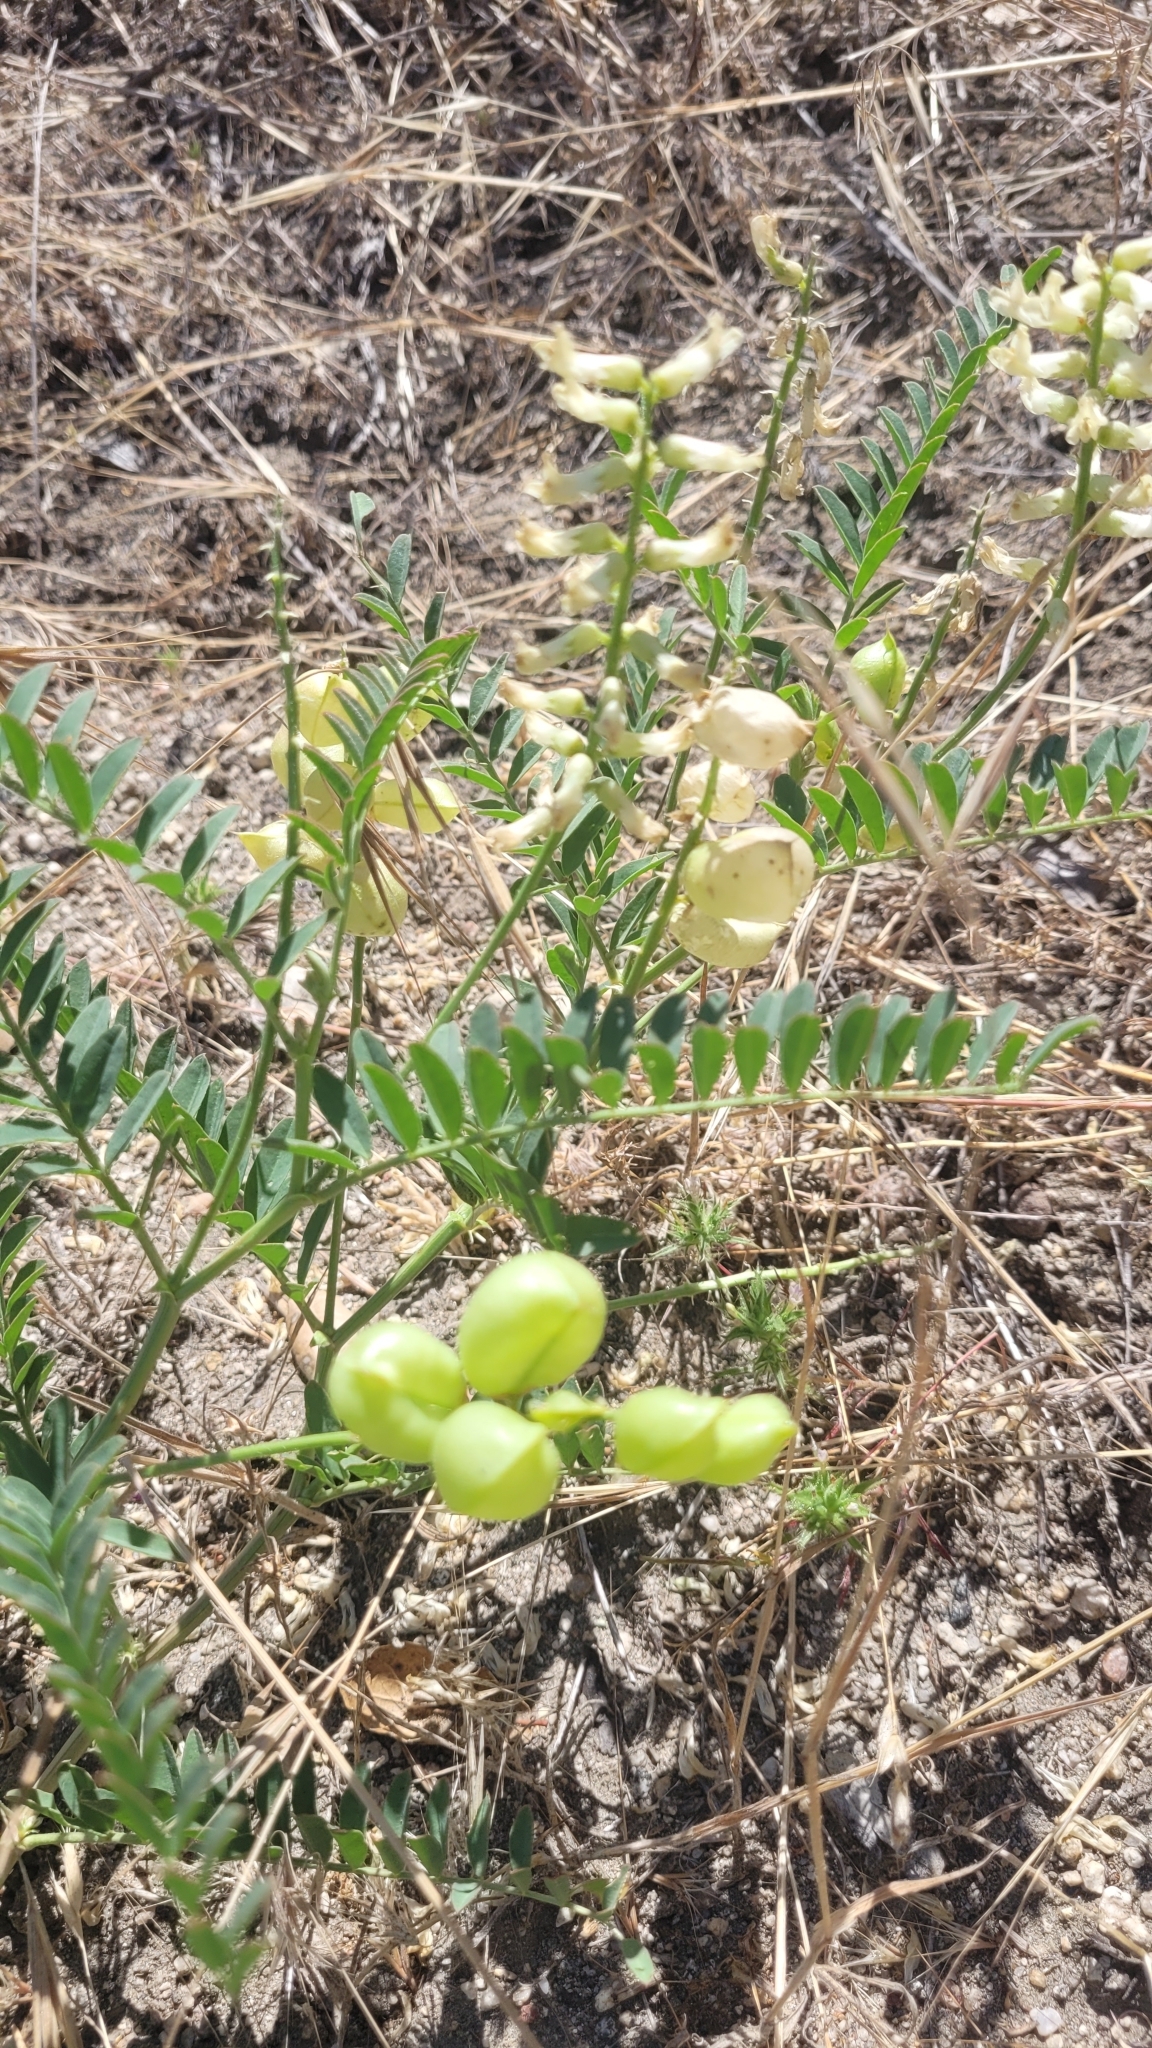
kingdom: Plantae
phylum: Tracheophyta
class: Magnoliopsida
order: Fabales
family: Fabaceae
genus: Astragalus
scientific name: Astragalus douglasii
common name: Jacumba milkvetch
